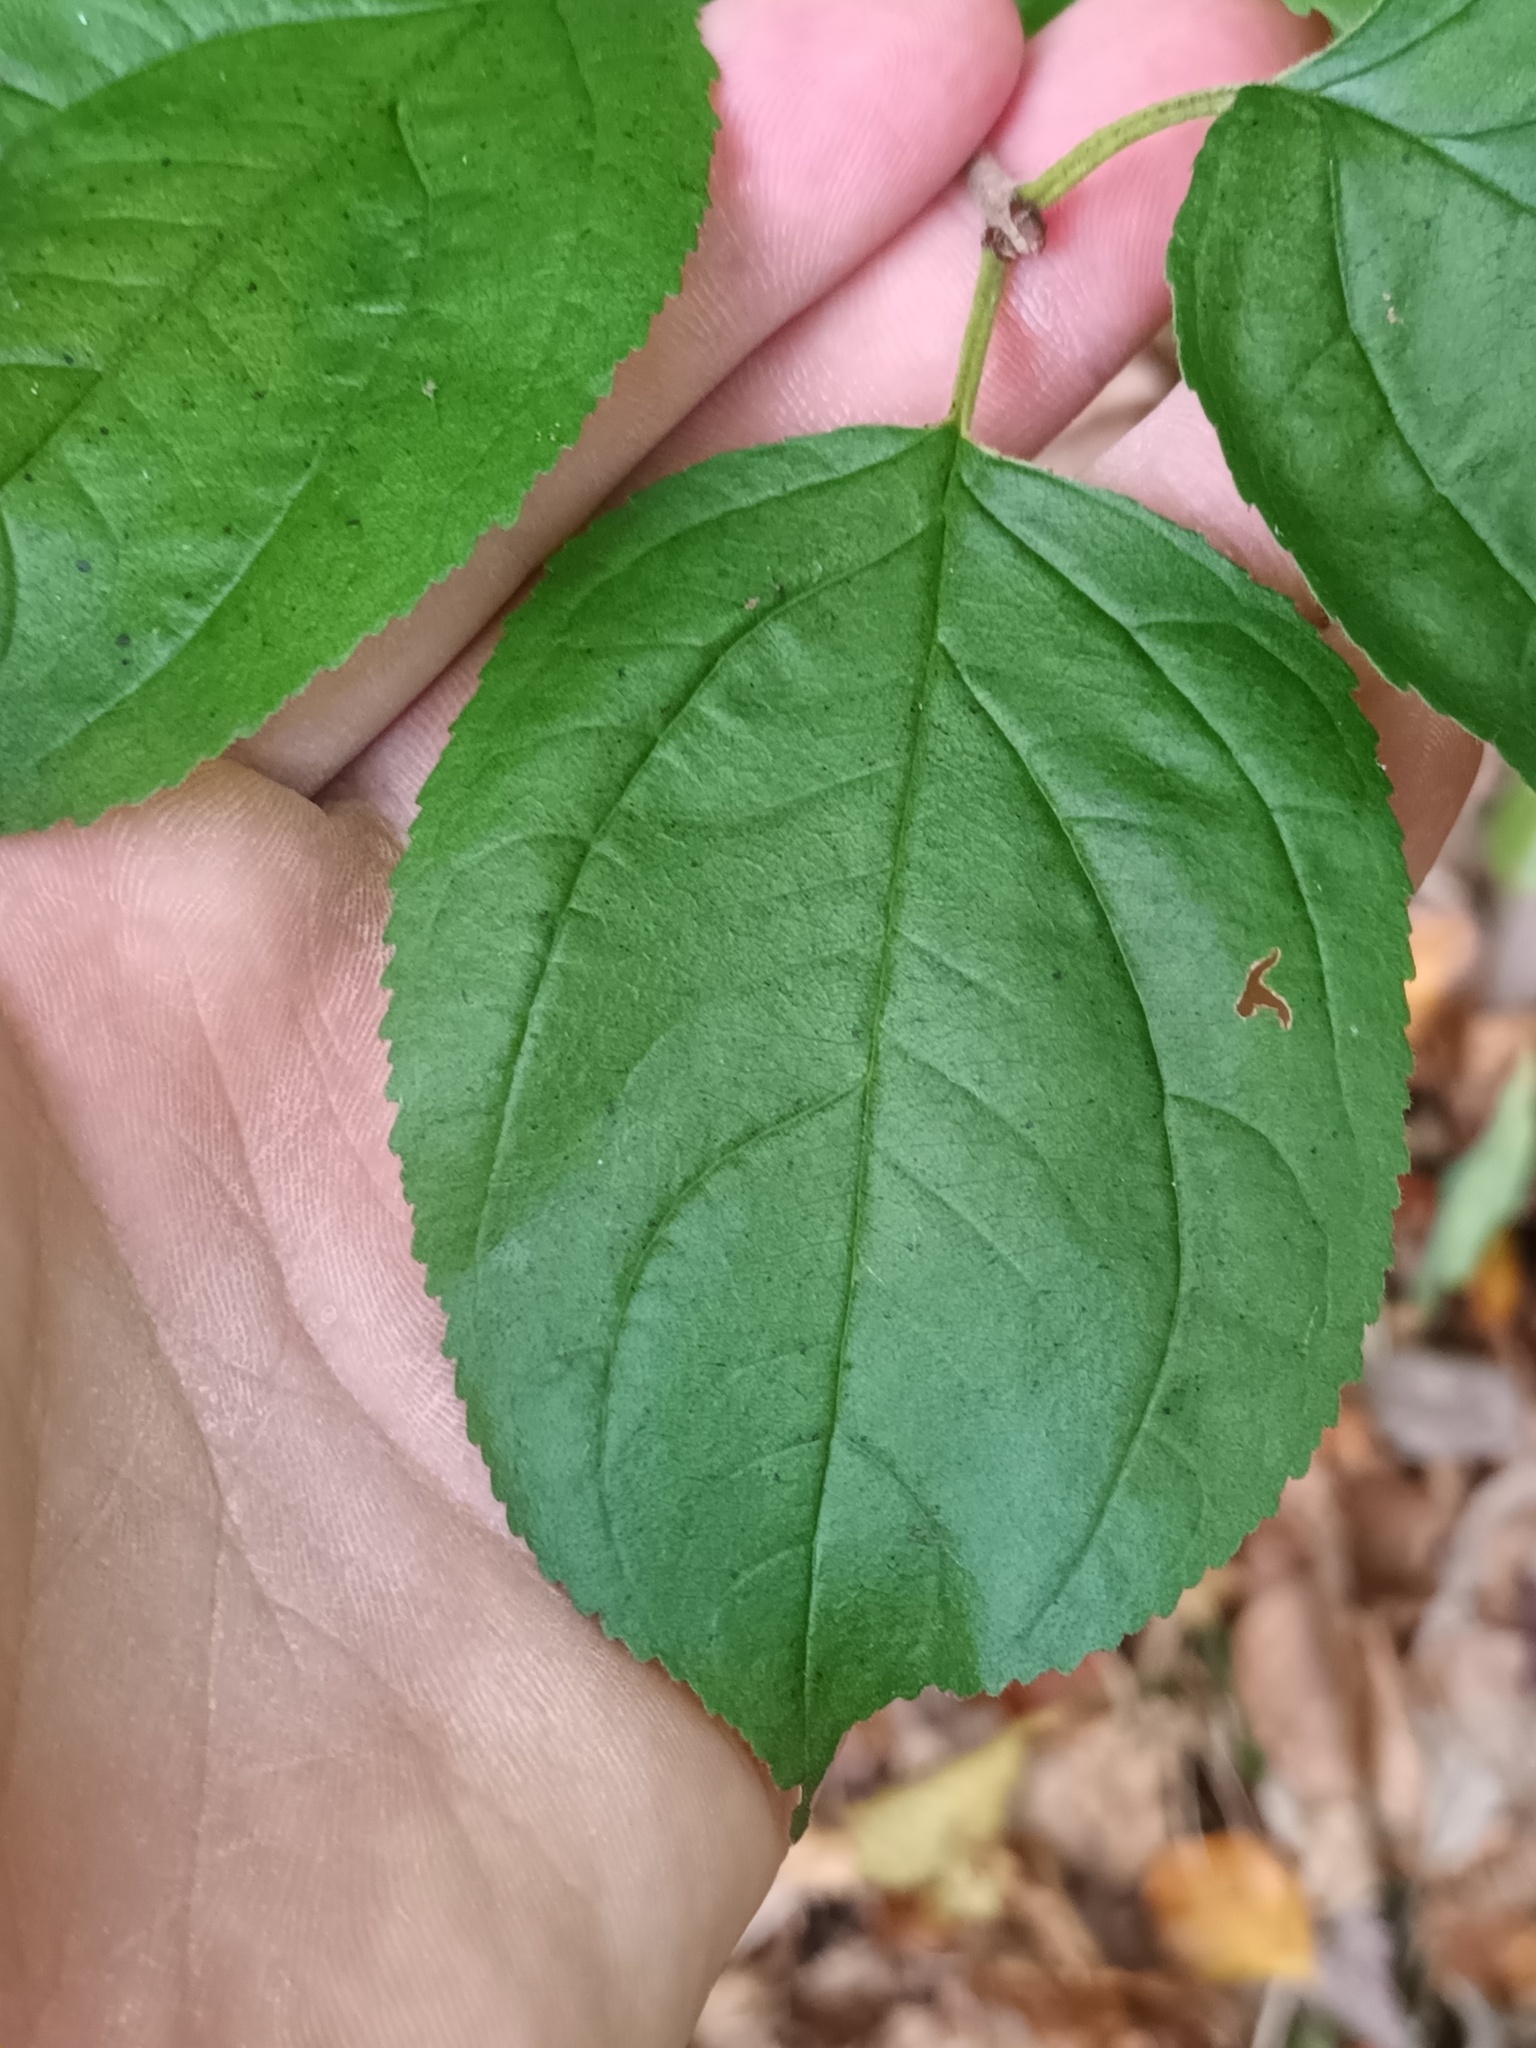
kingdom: Plantae
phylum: Tracheophyta
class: Magnoliopsida
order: Rosales
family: Rhamnaceae
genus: Rhamnus
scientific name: Rhamnus cathartica
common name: Common buckthorn
